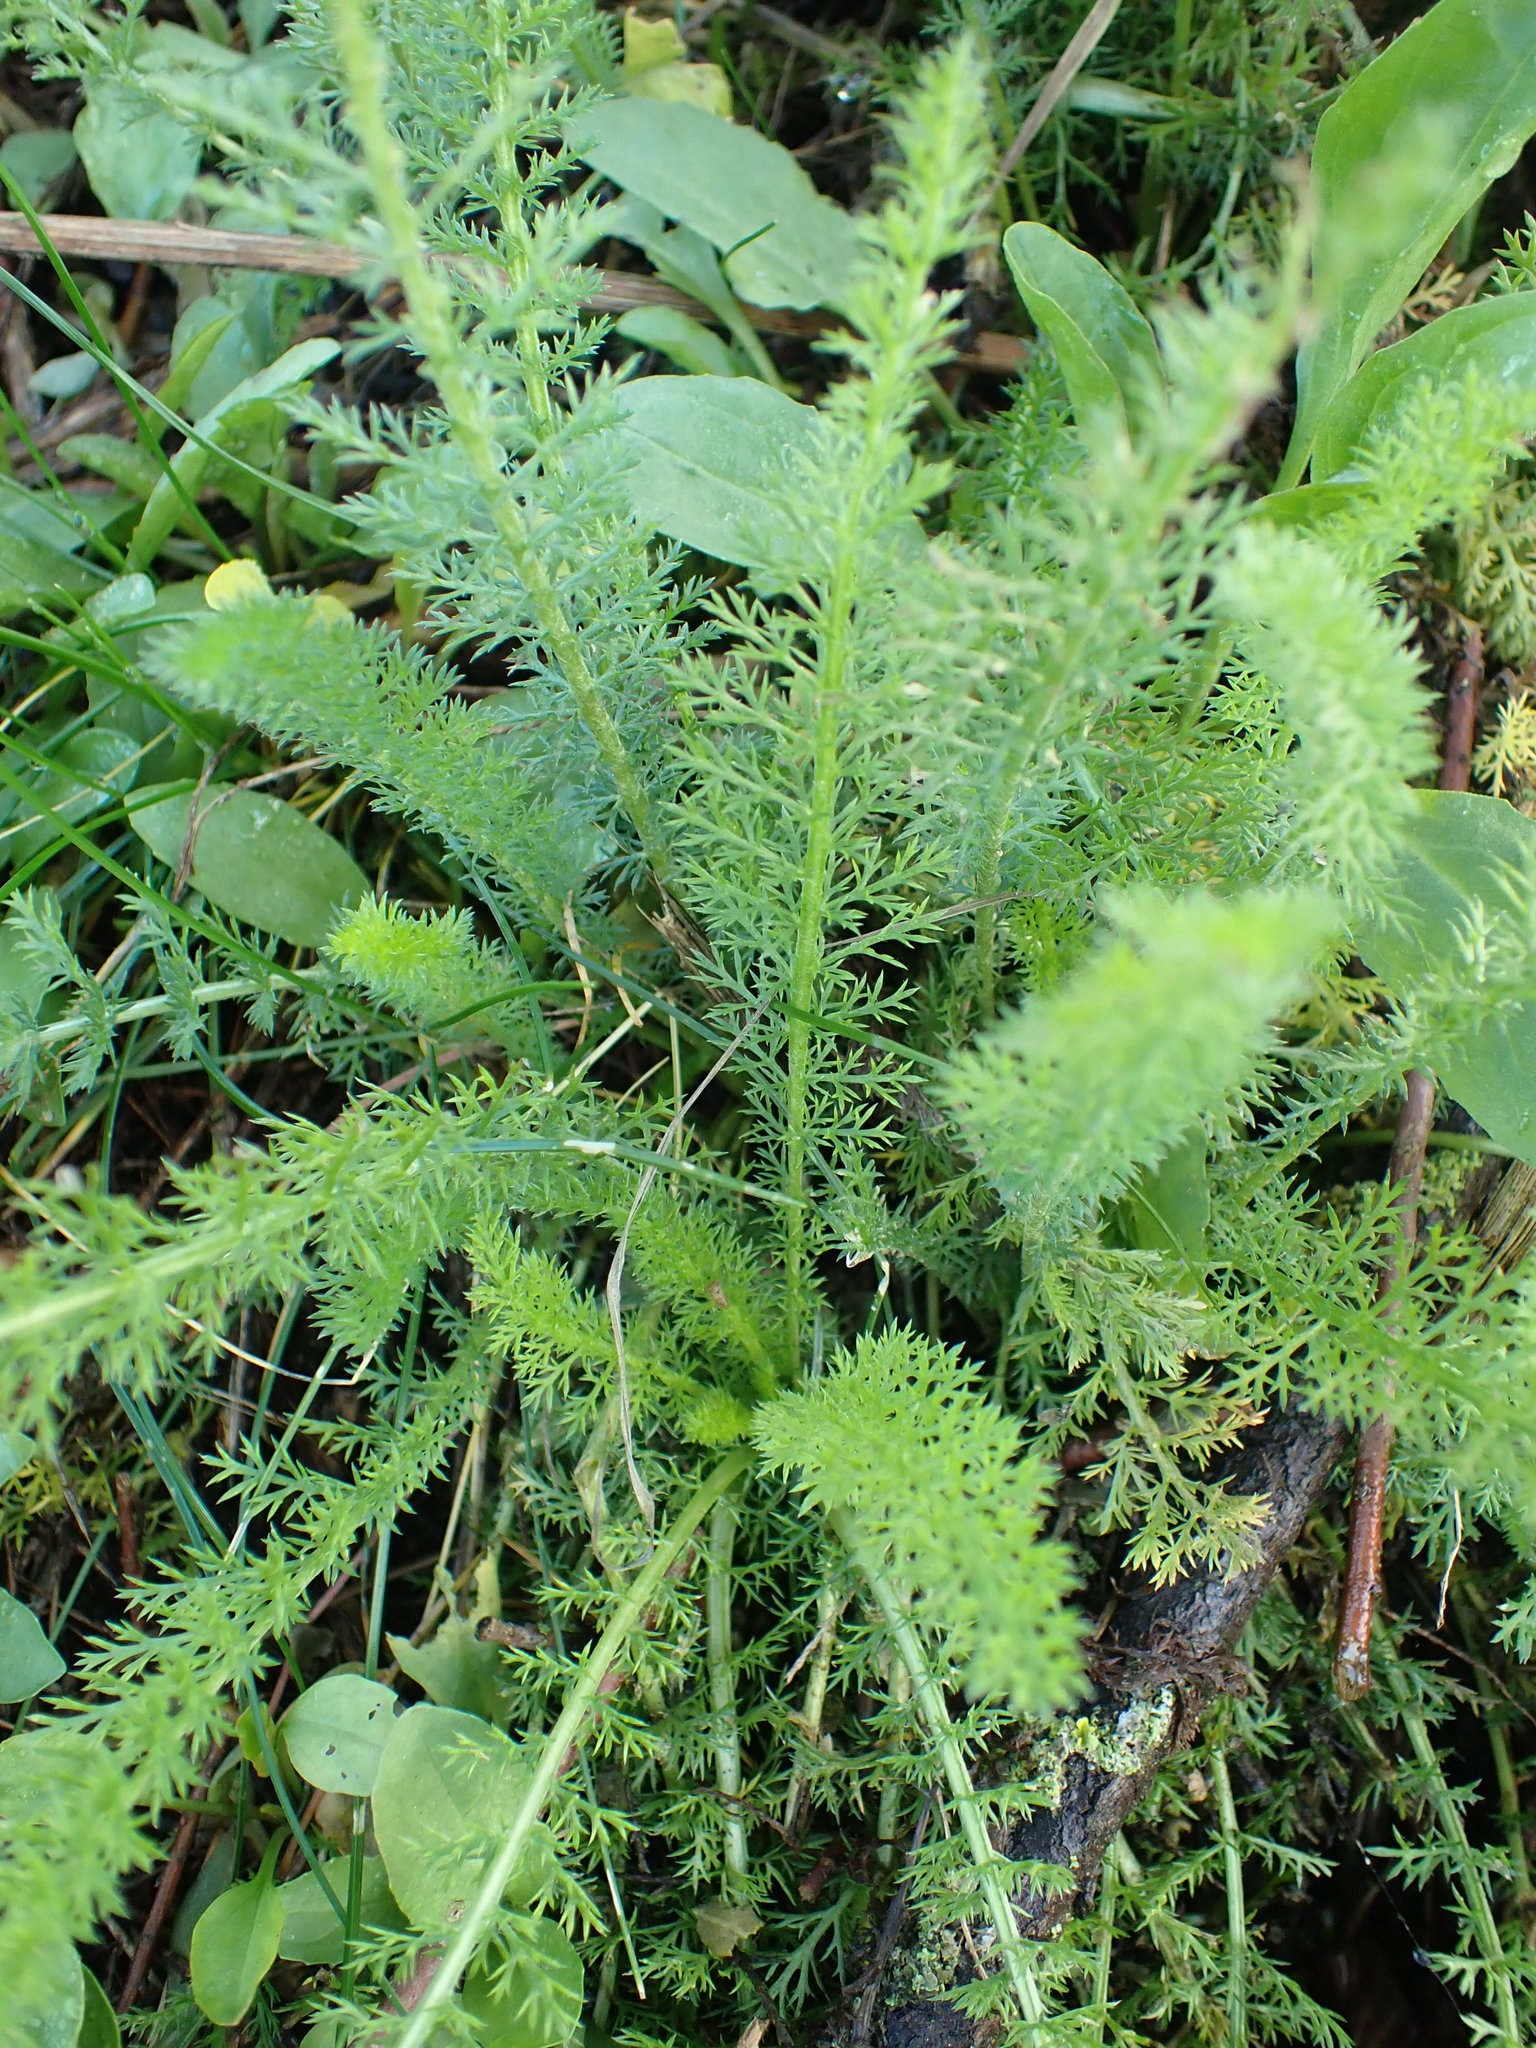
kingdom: Plantae
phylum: Tracheophyta
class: Magnoliopsida
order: Asterales
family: Asteraceae
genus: Achillea
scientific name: Achillea millefolium
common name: Yarrow
